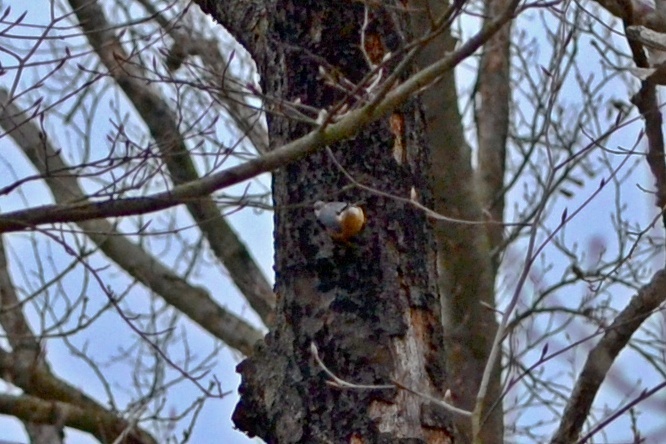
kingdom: Animalia
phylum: Chordata
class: Aves
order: Passeriformes
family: Sittidae
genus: Sitta
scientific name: Sitta europaea
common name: Eurasian nuthatch
